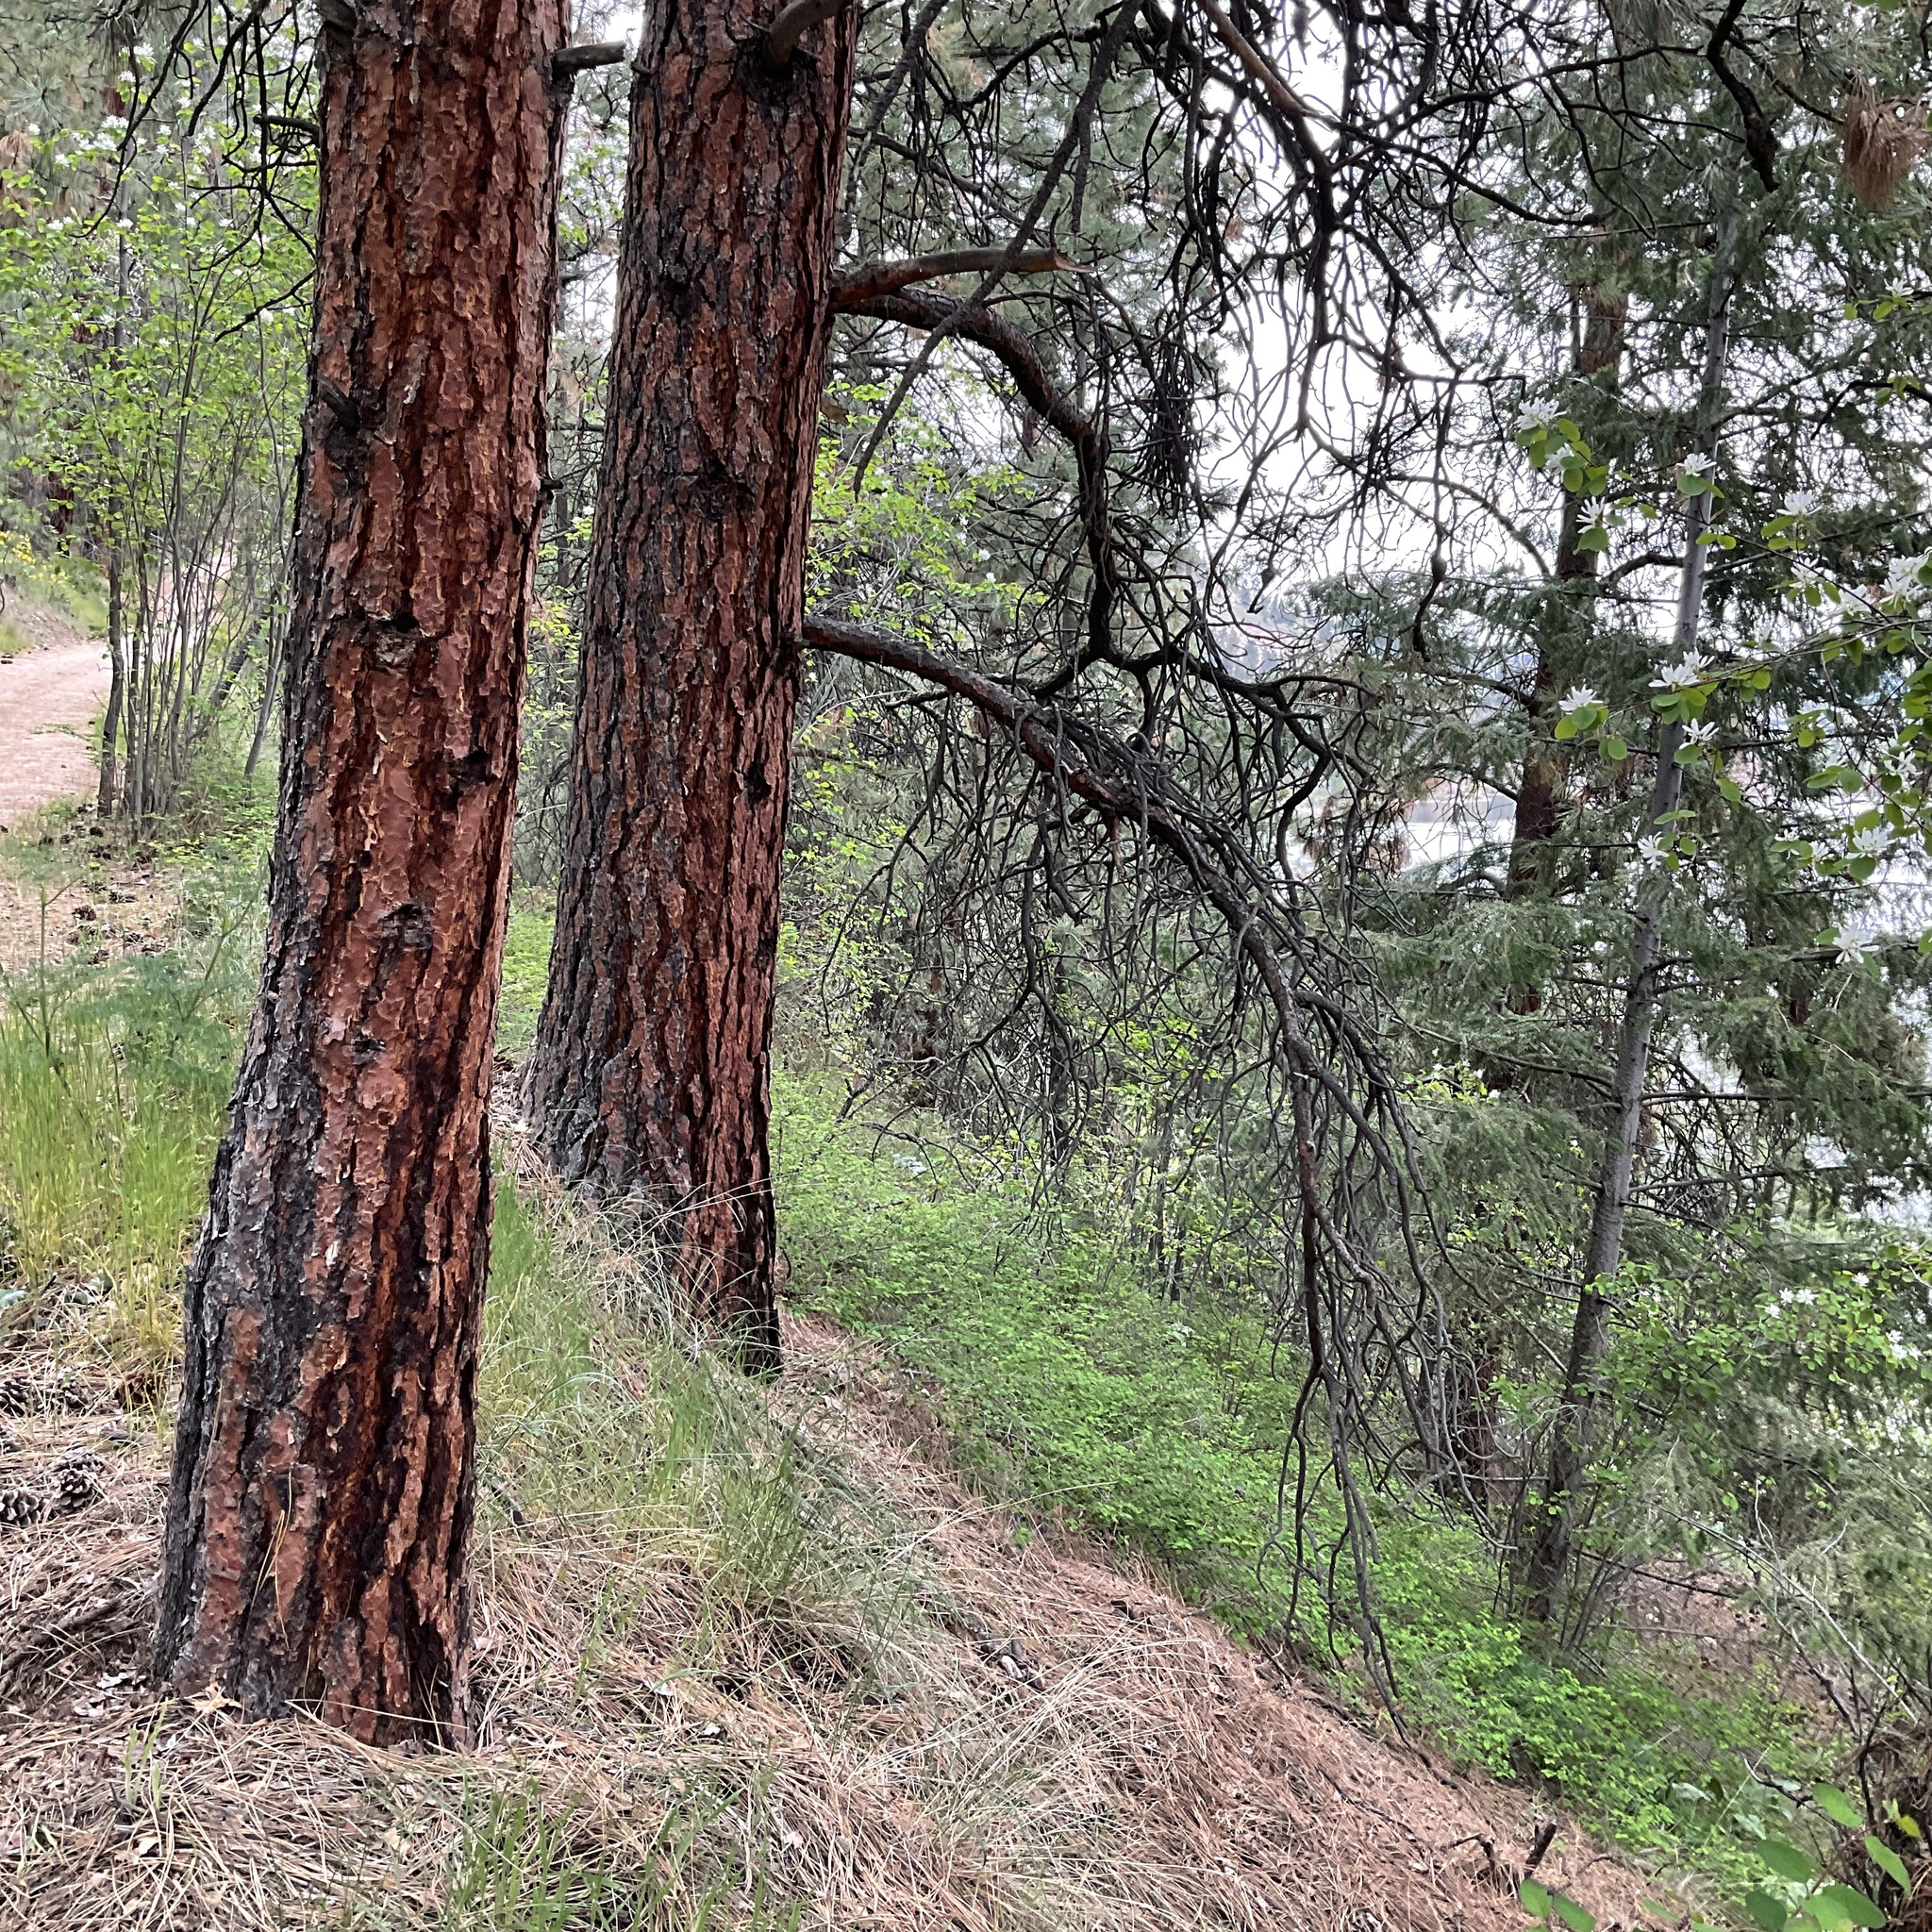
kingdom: Plantae
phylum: Tracheophyta
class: Pinopsida
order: Pinales
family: Pinaceae
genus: Pinus
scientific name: Pinus ponderosa
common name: Western yellow-pine
